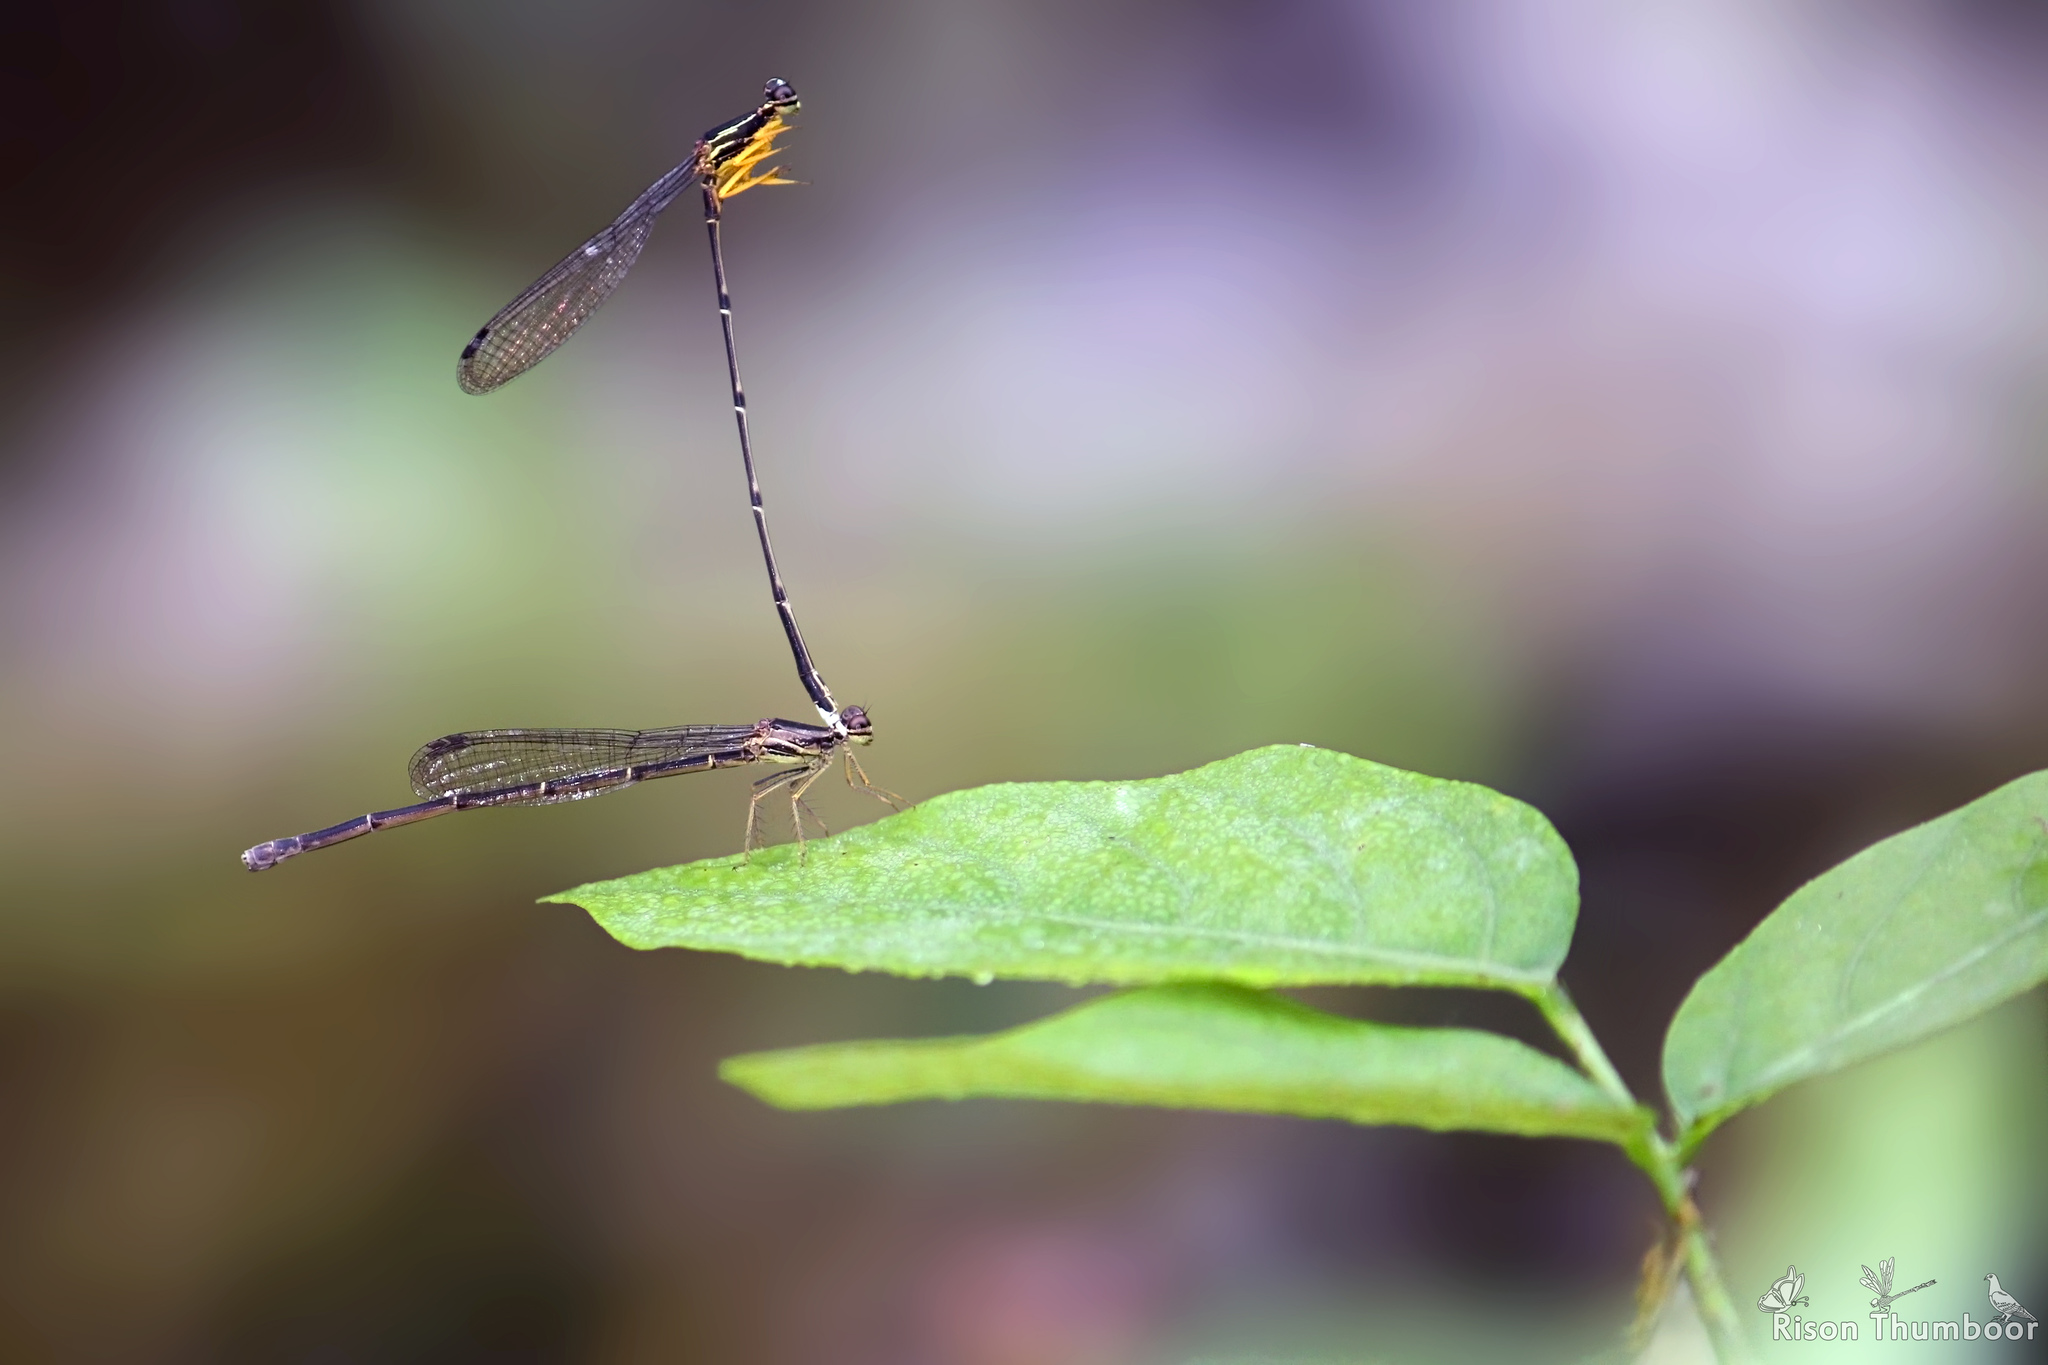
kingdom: Animalia
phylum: Arthropoda
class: Insecta
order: Odonata
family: Platycnemididae
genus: Copera
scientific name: Copera marginipes
